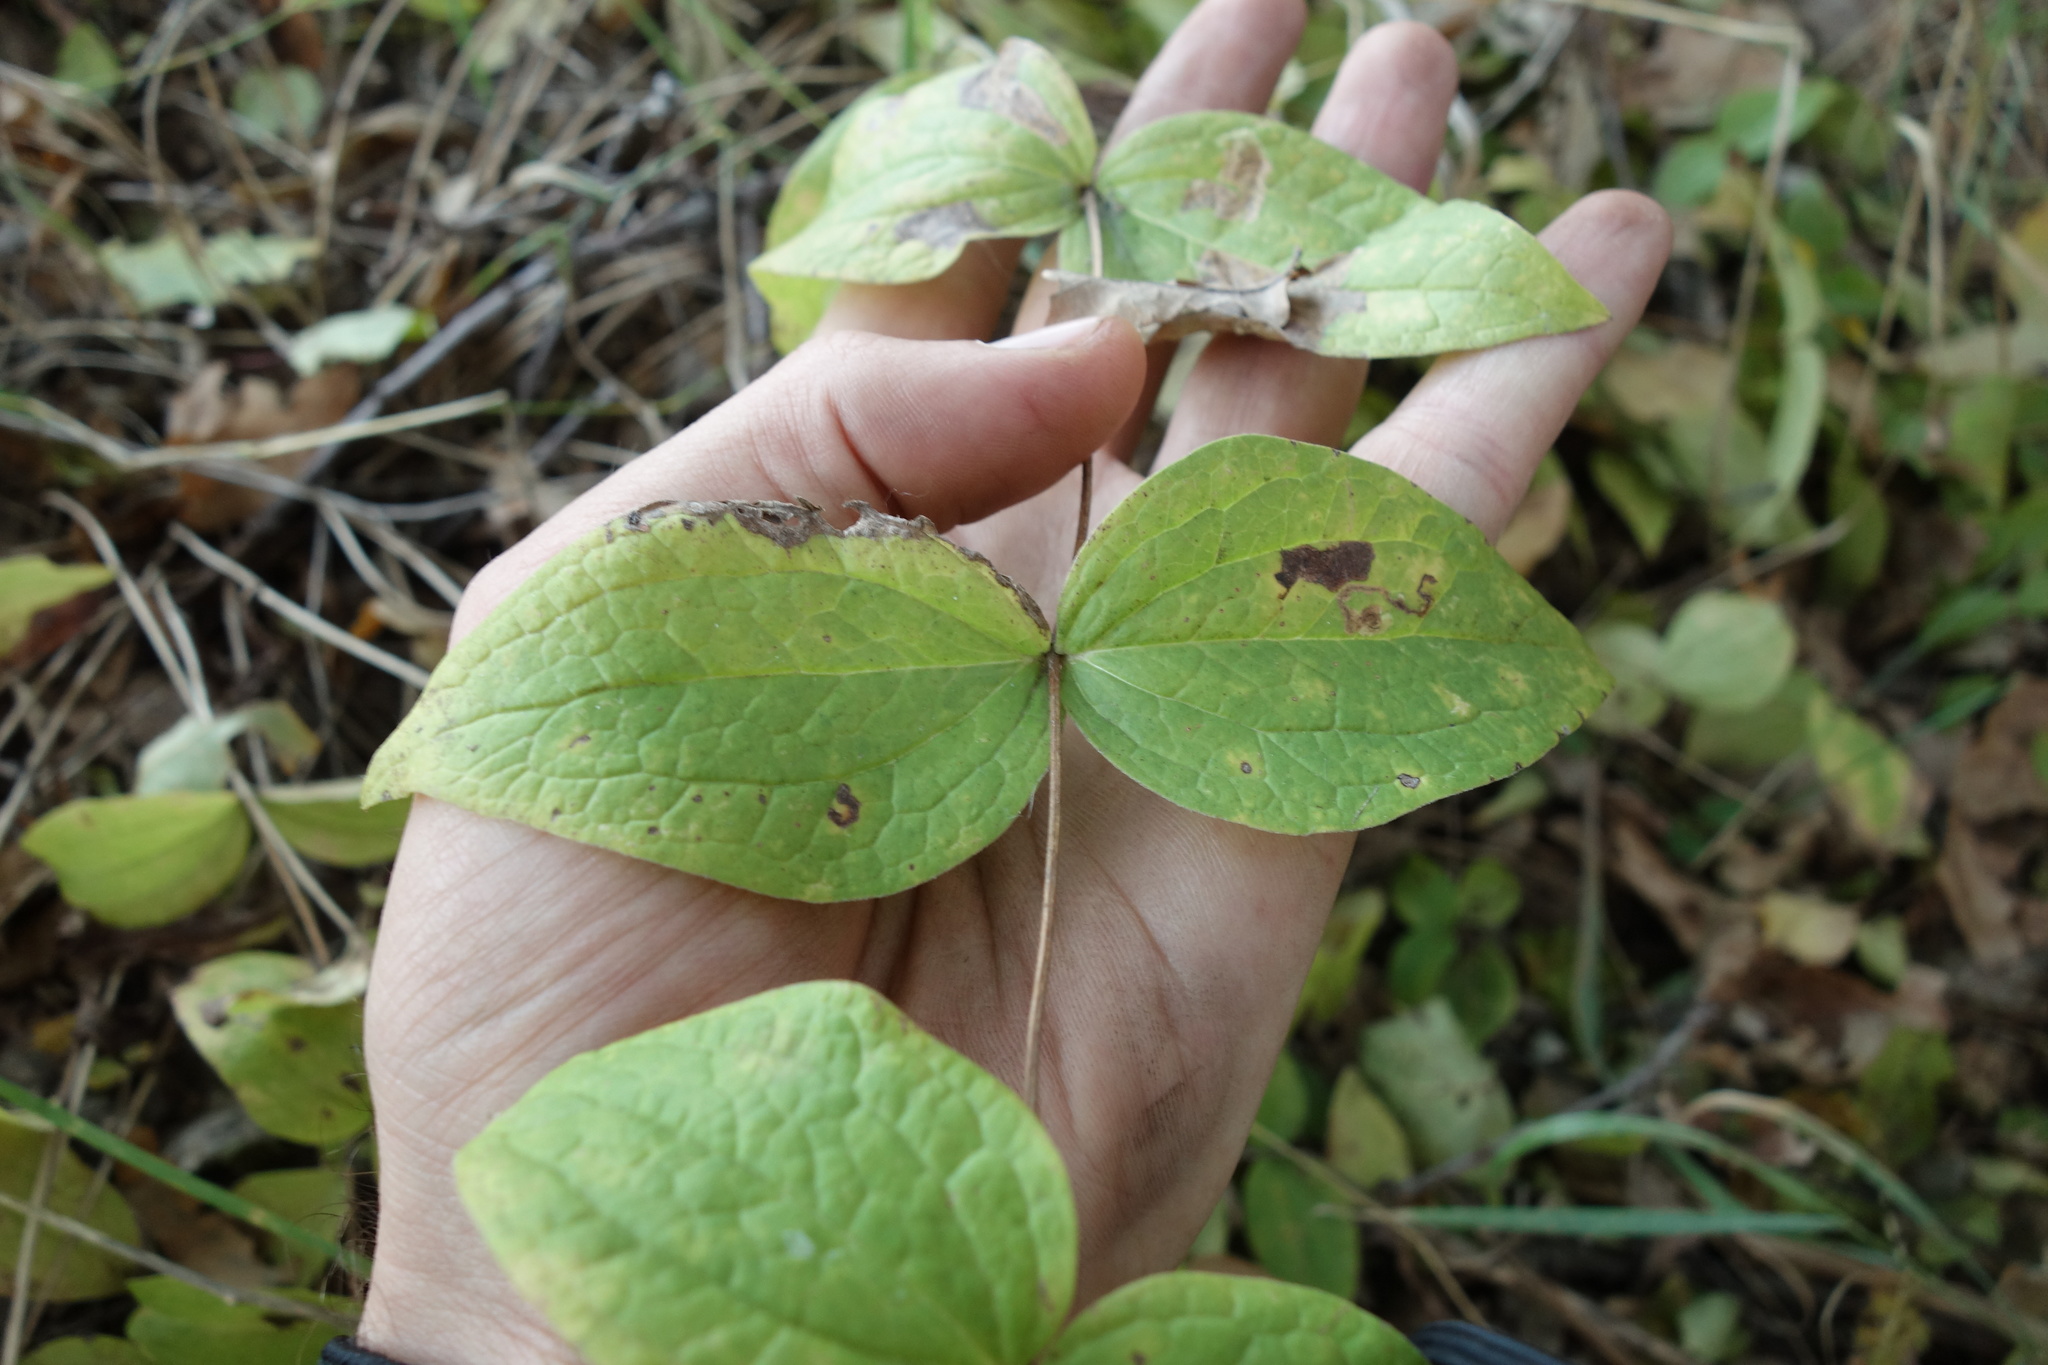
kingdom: Plantae
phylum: Tracheophyta
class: Magnoliopsida
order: Ranunculales
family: Ranunculaceae
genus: Clematis
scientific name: Clematis integrifolia
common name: Solitary clematis
